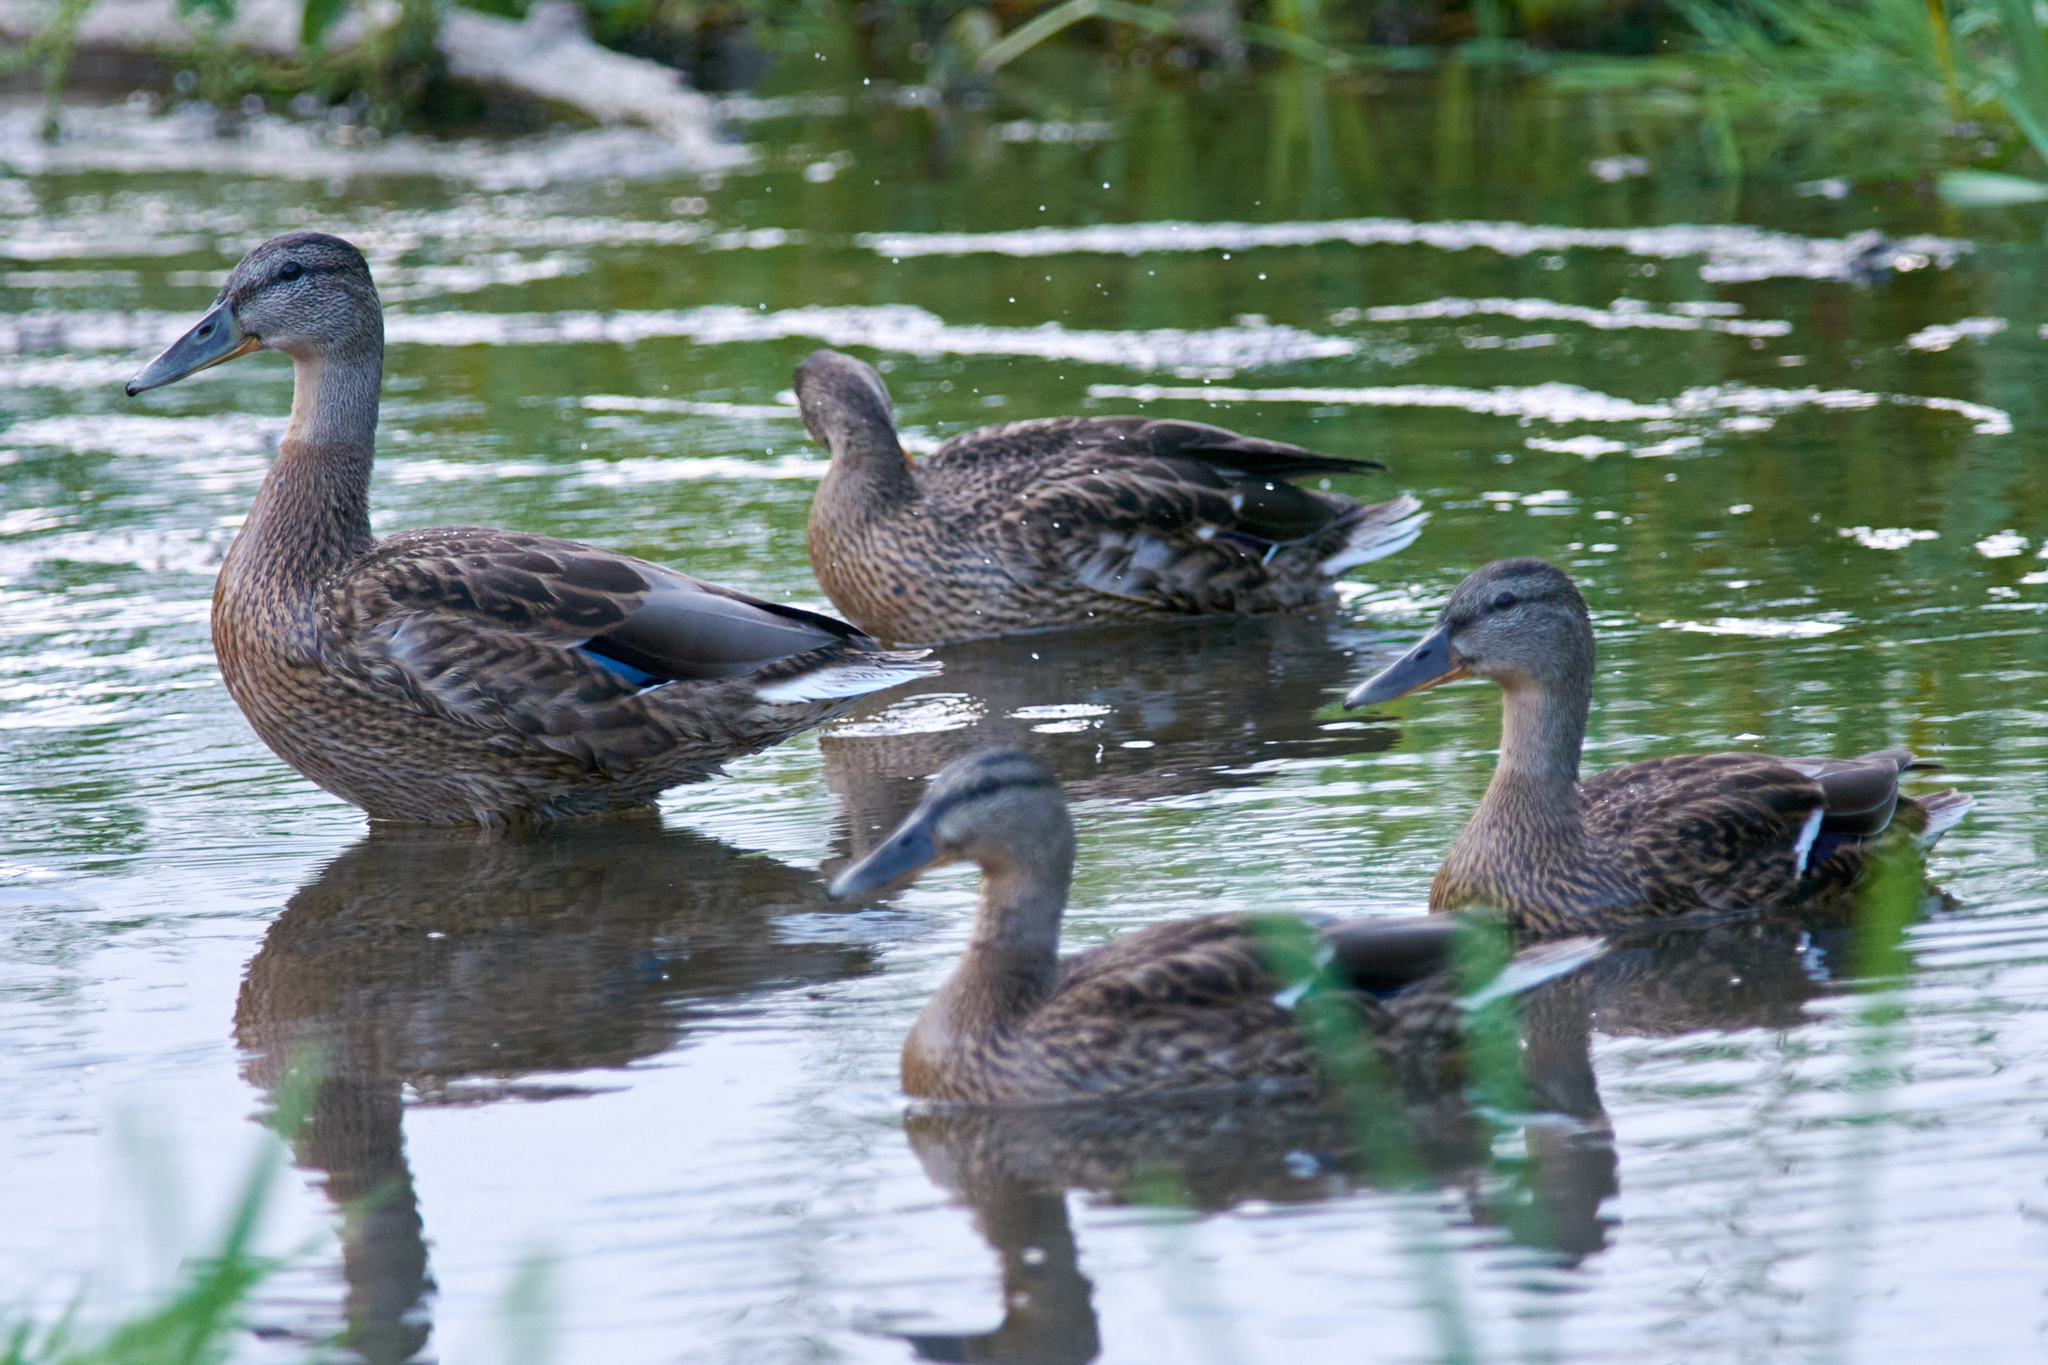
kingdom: Animalia
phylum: Chordata
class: Aves
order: Anseriformes
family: Anatidae
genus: Anas
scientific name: Anas platyrhynchos
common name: Mallard
